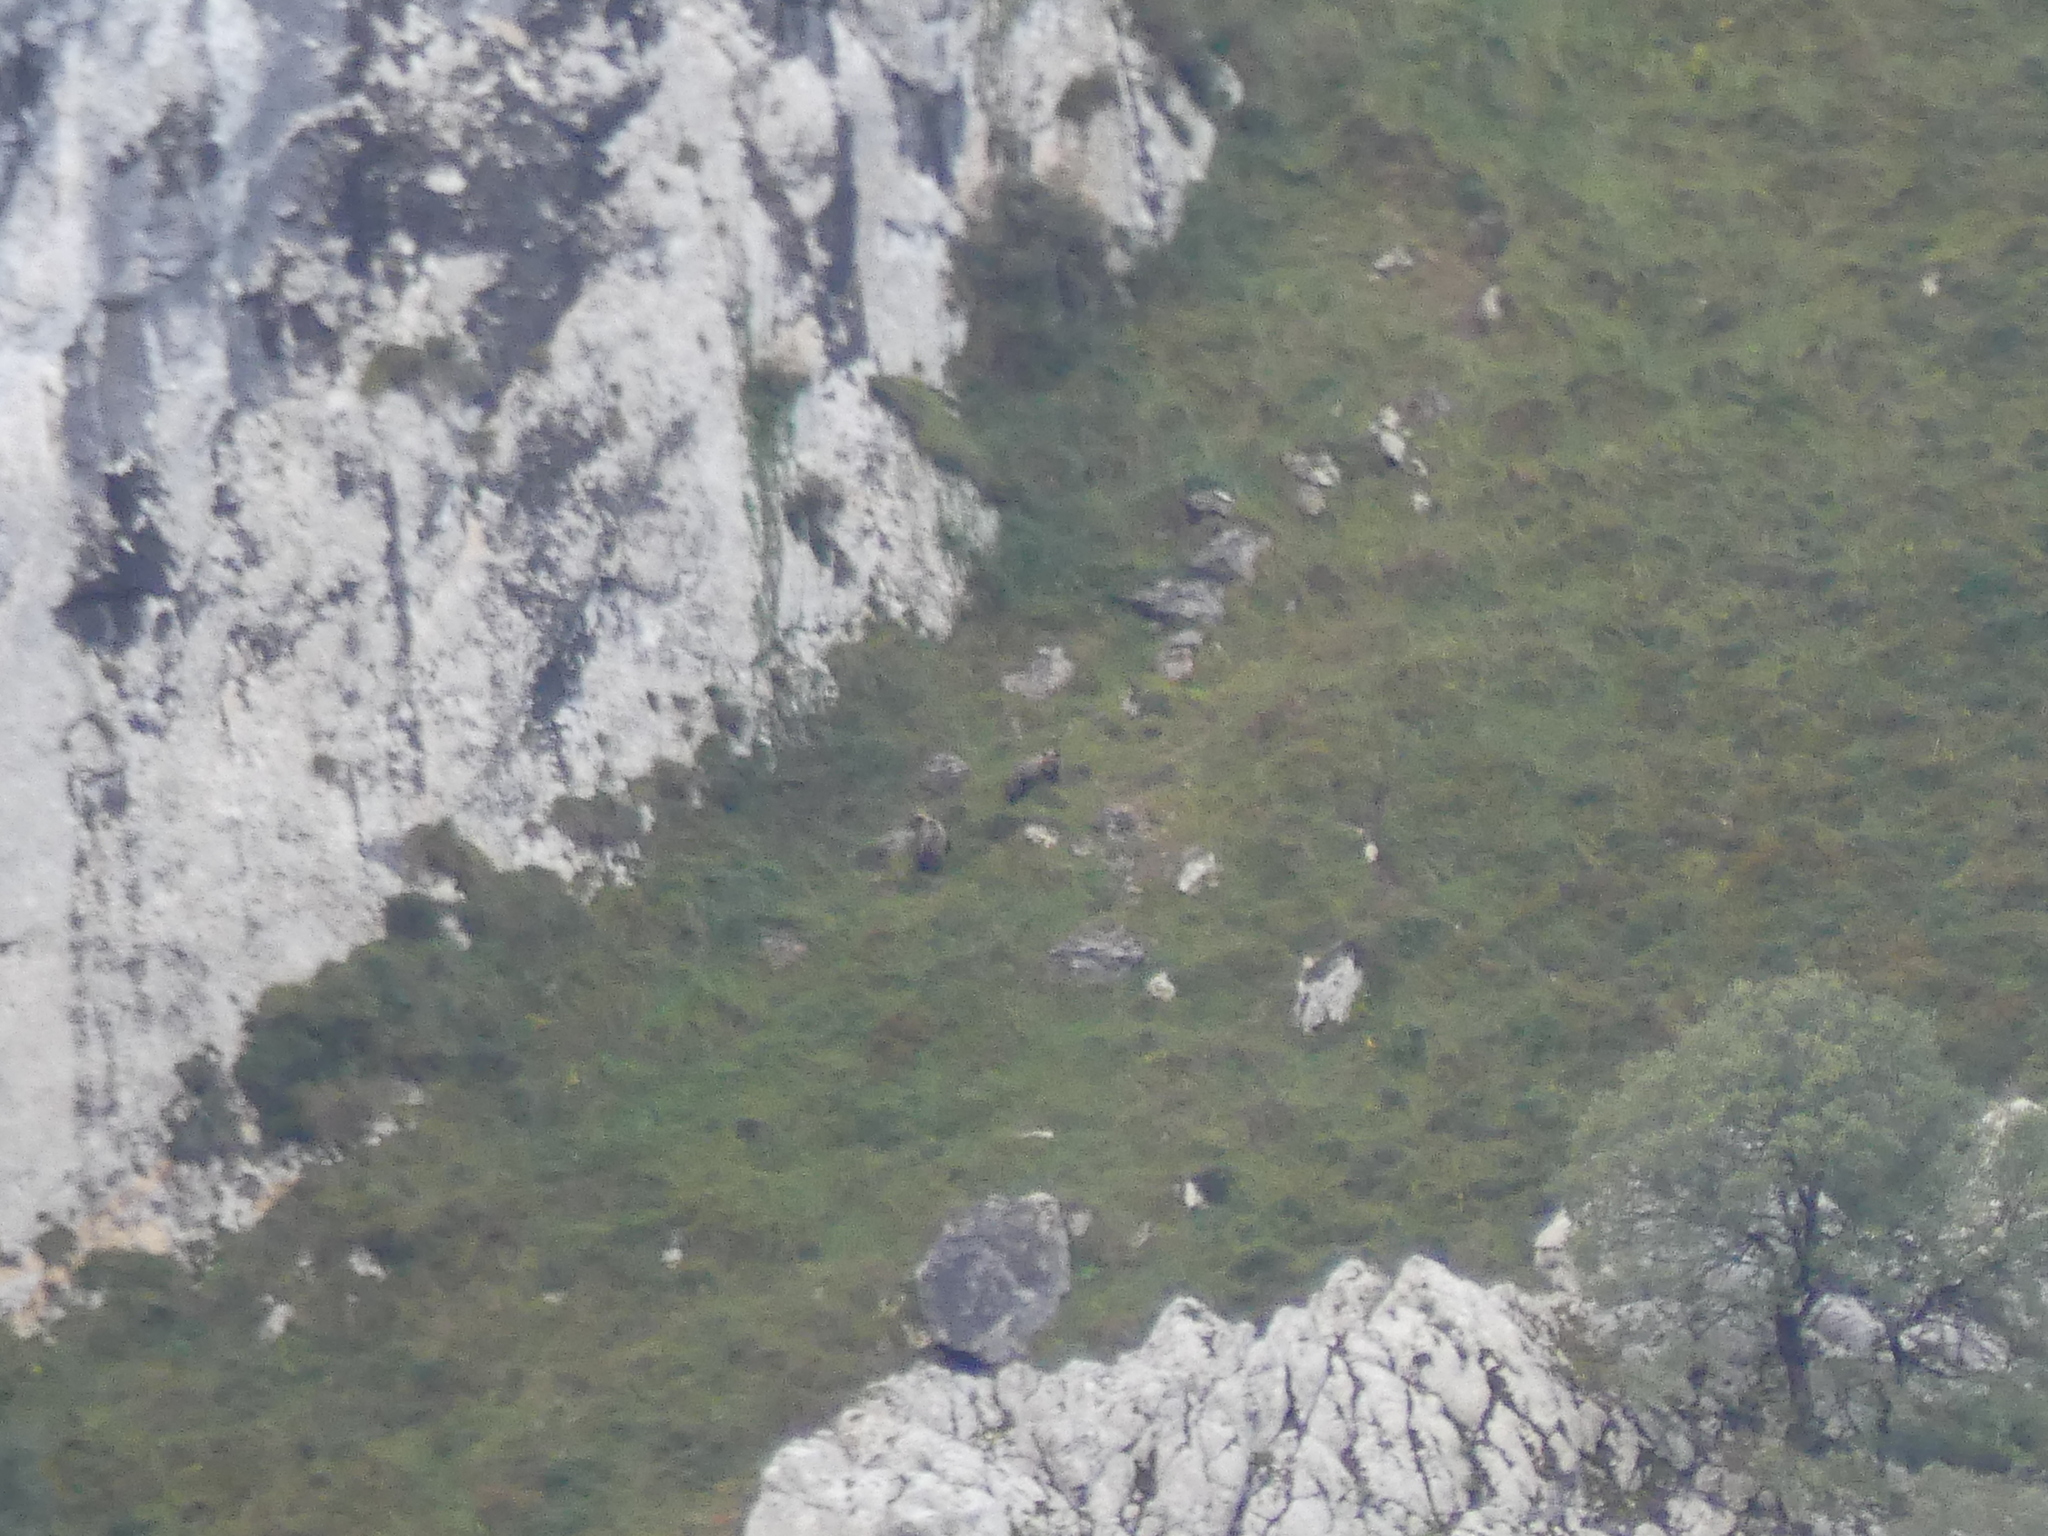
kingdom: Animalia
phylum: Chordata
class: Mammalia
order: Carnivora
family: Ursidae
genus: Ursus
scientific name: Ursus arctos
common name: Brown bear
